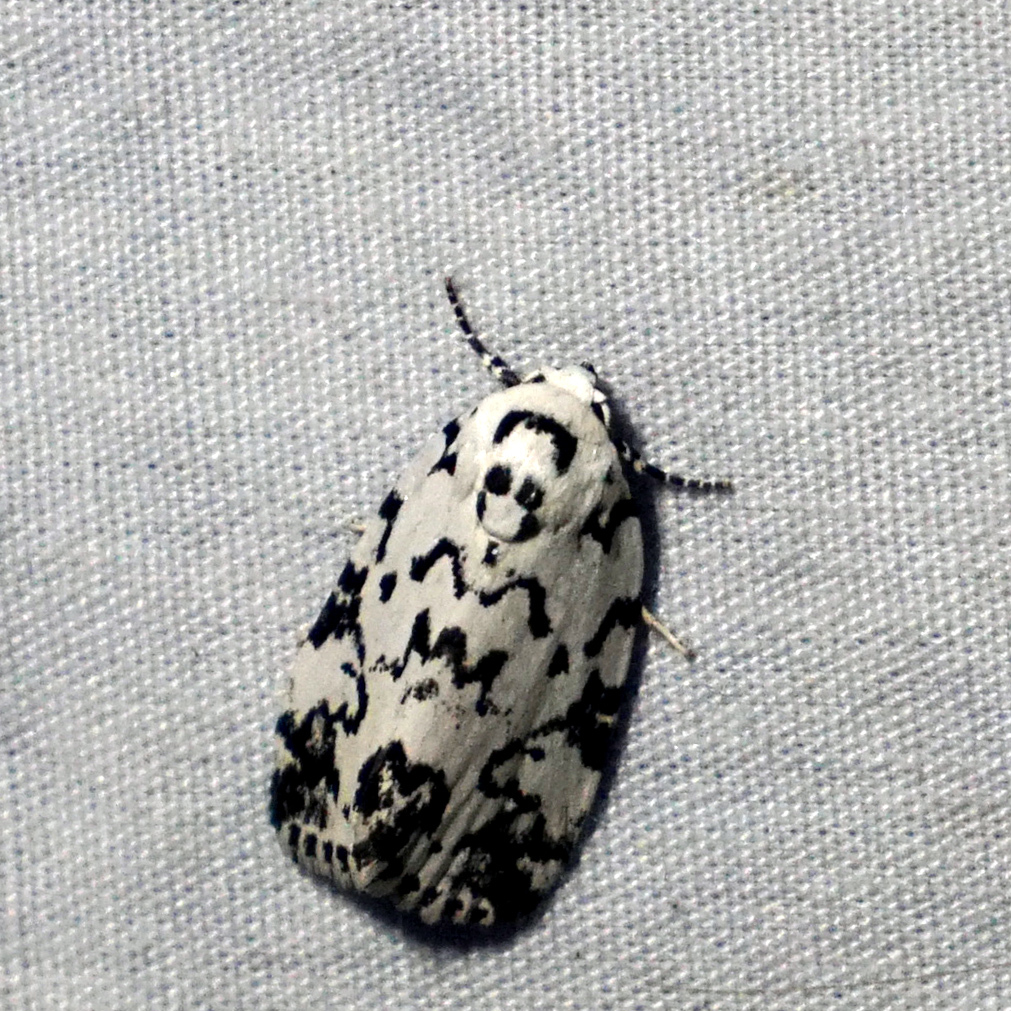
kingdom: Animalia
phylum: Arthropoda
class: Insecta
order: Lepidoptera
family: Noctuidae
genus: Polygrammate
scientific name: Polygrammate hebraeicum
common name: Hebrew moth
